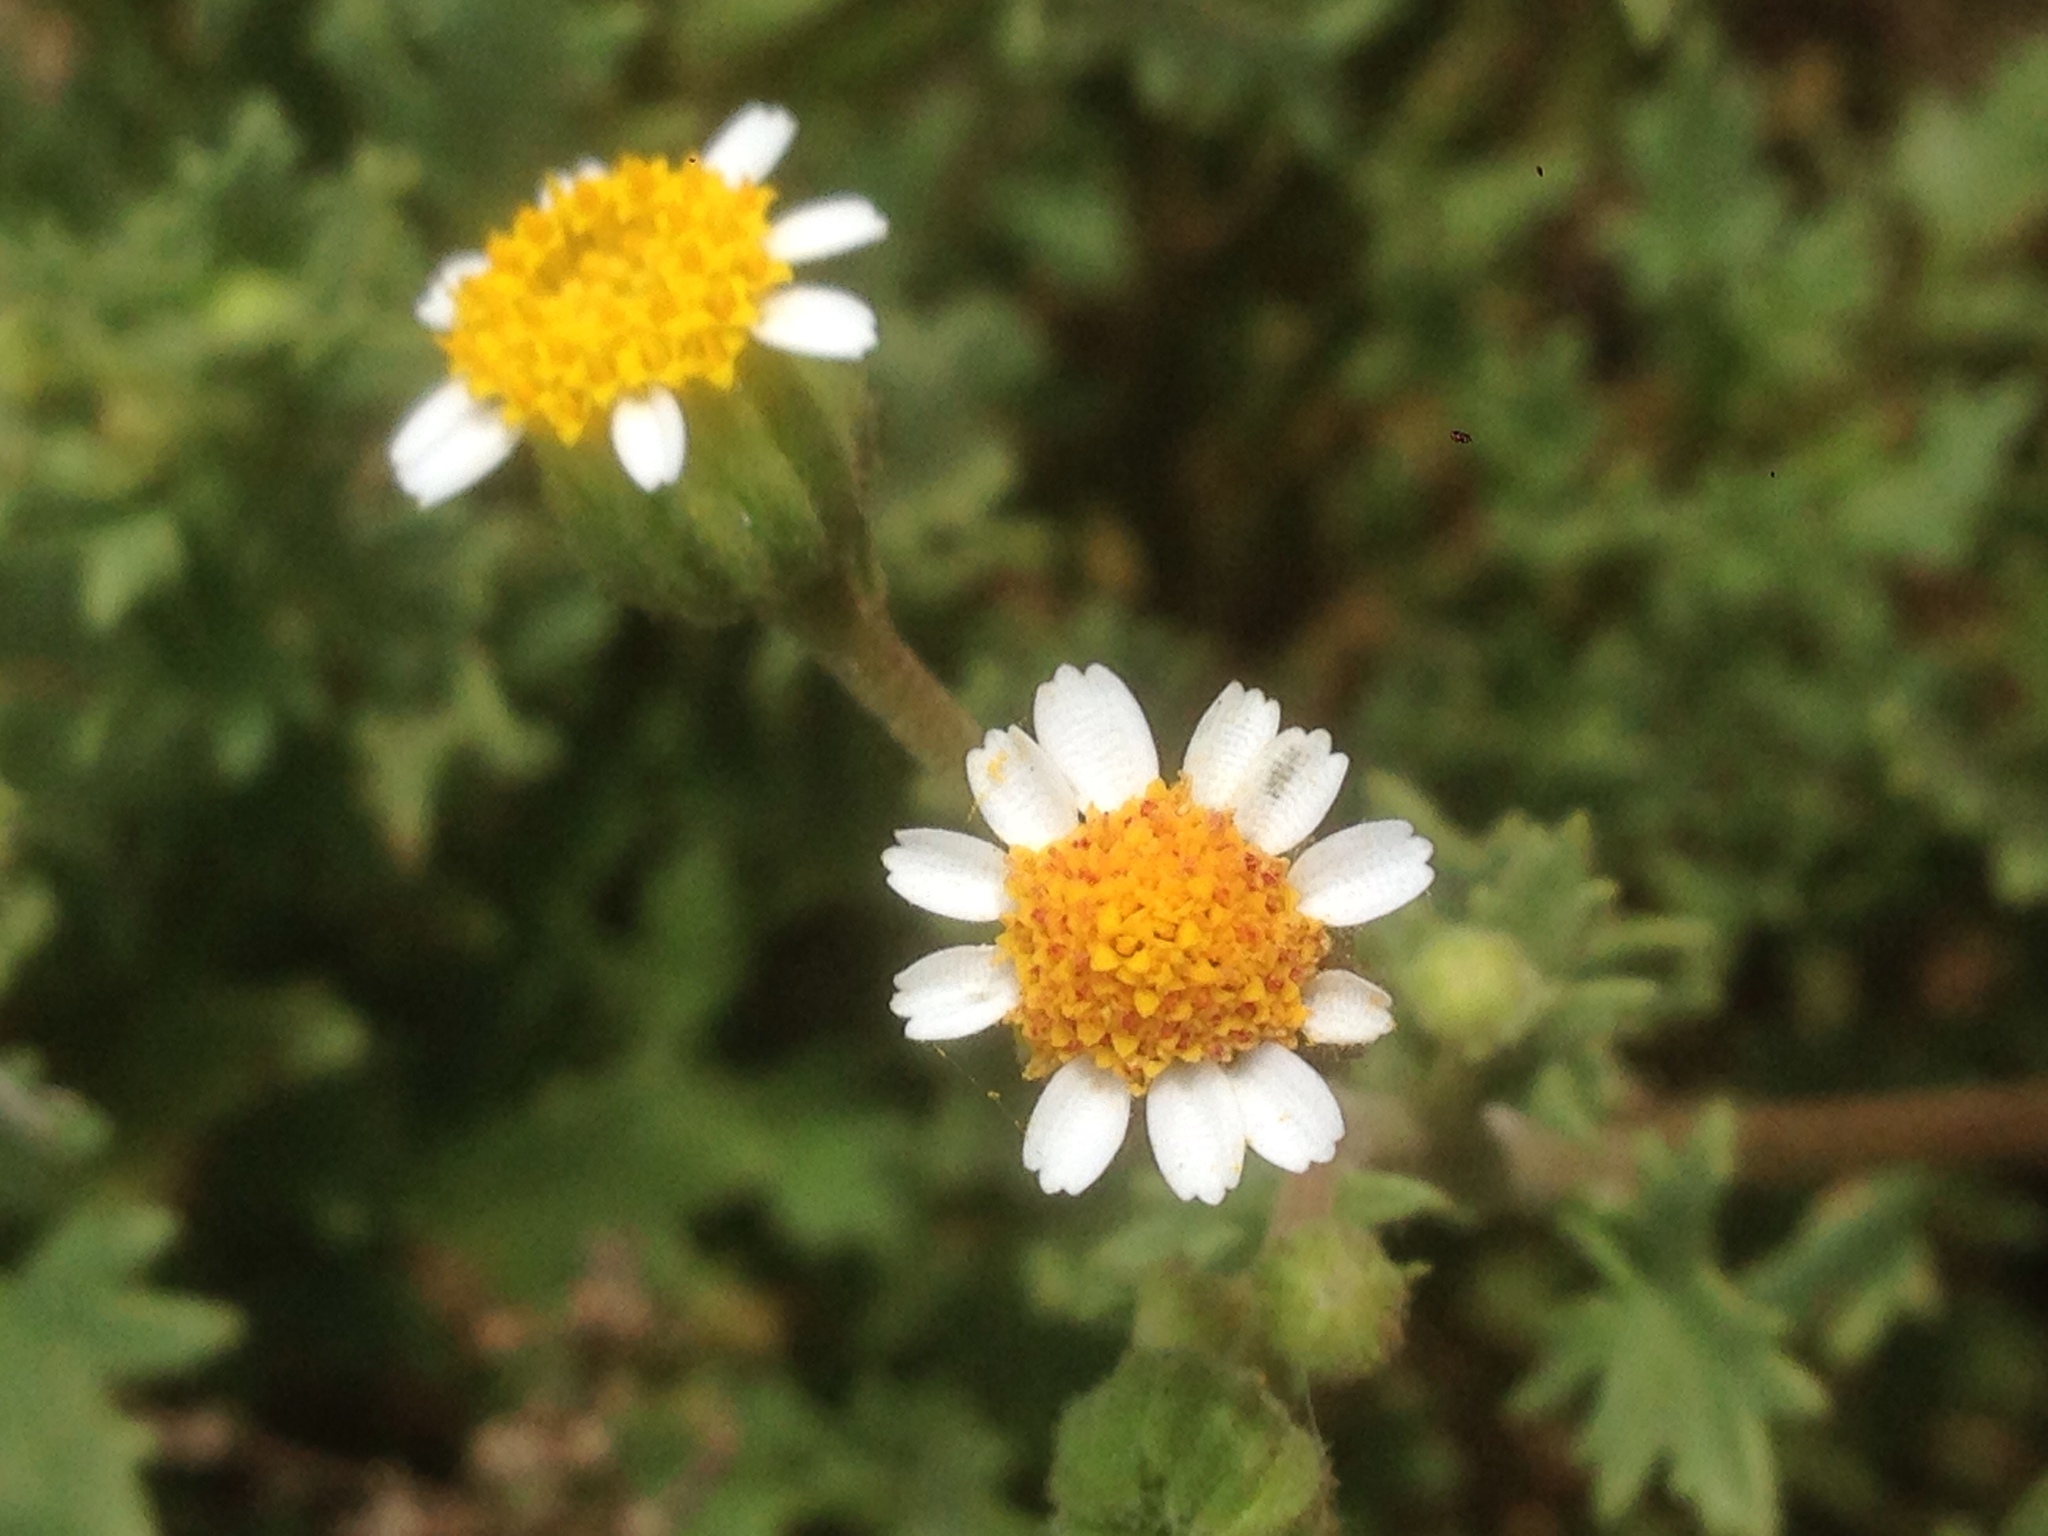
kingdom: Plantae
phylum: Tracheophyta
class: Magnoliopsida
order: Asterales
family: Asteraceae
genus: Laphamia
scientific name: Laphamia emoryi
